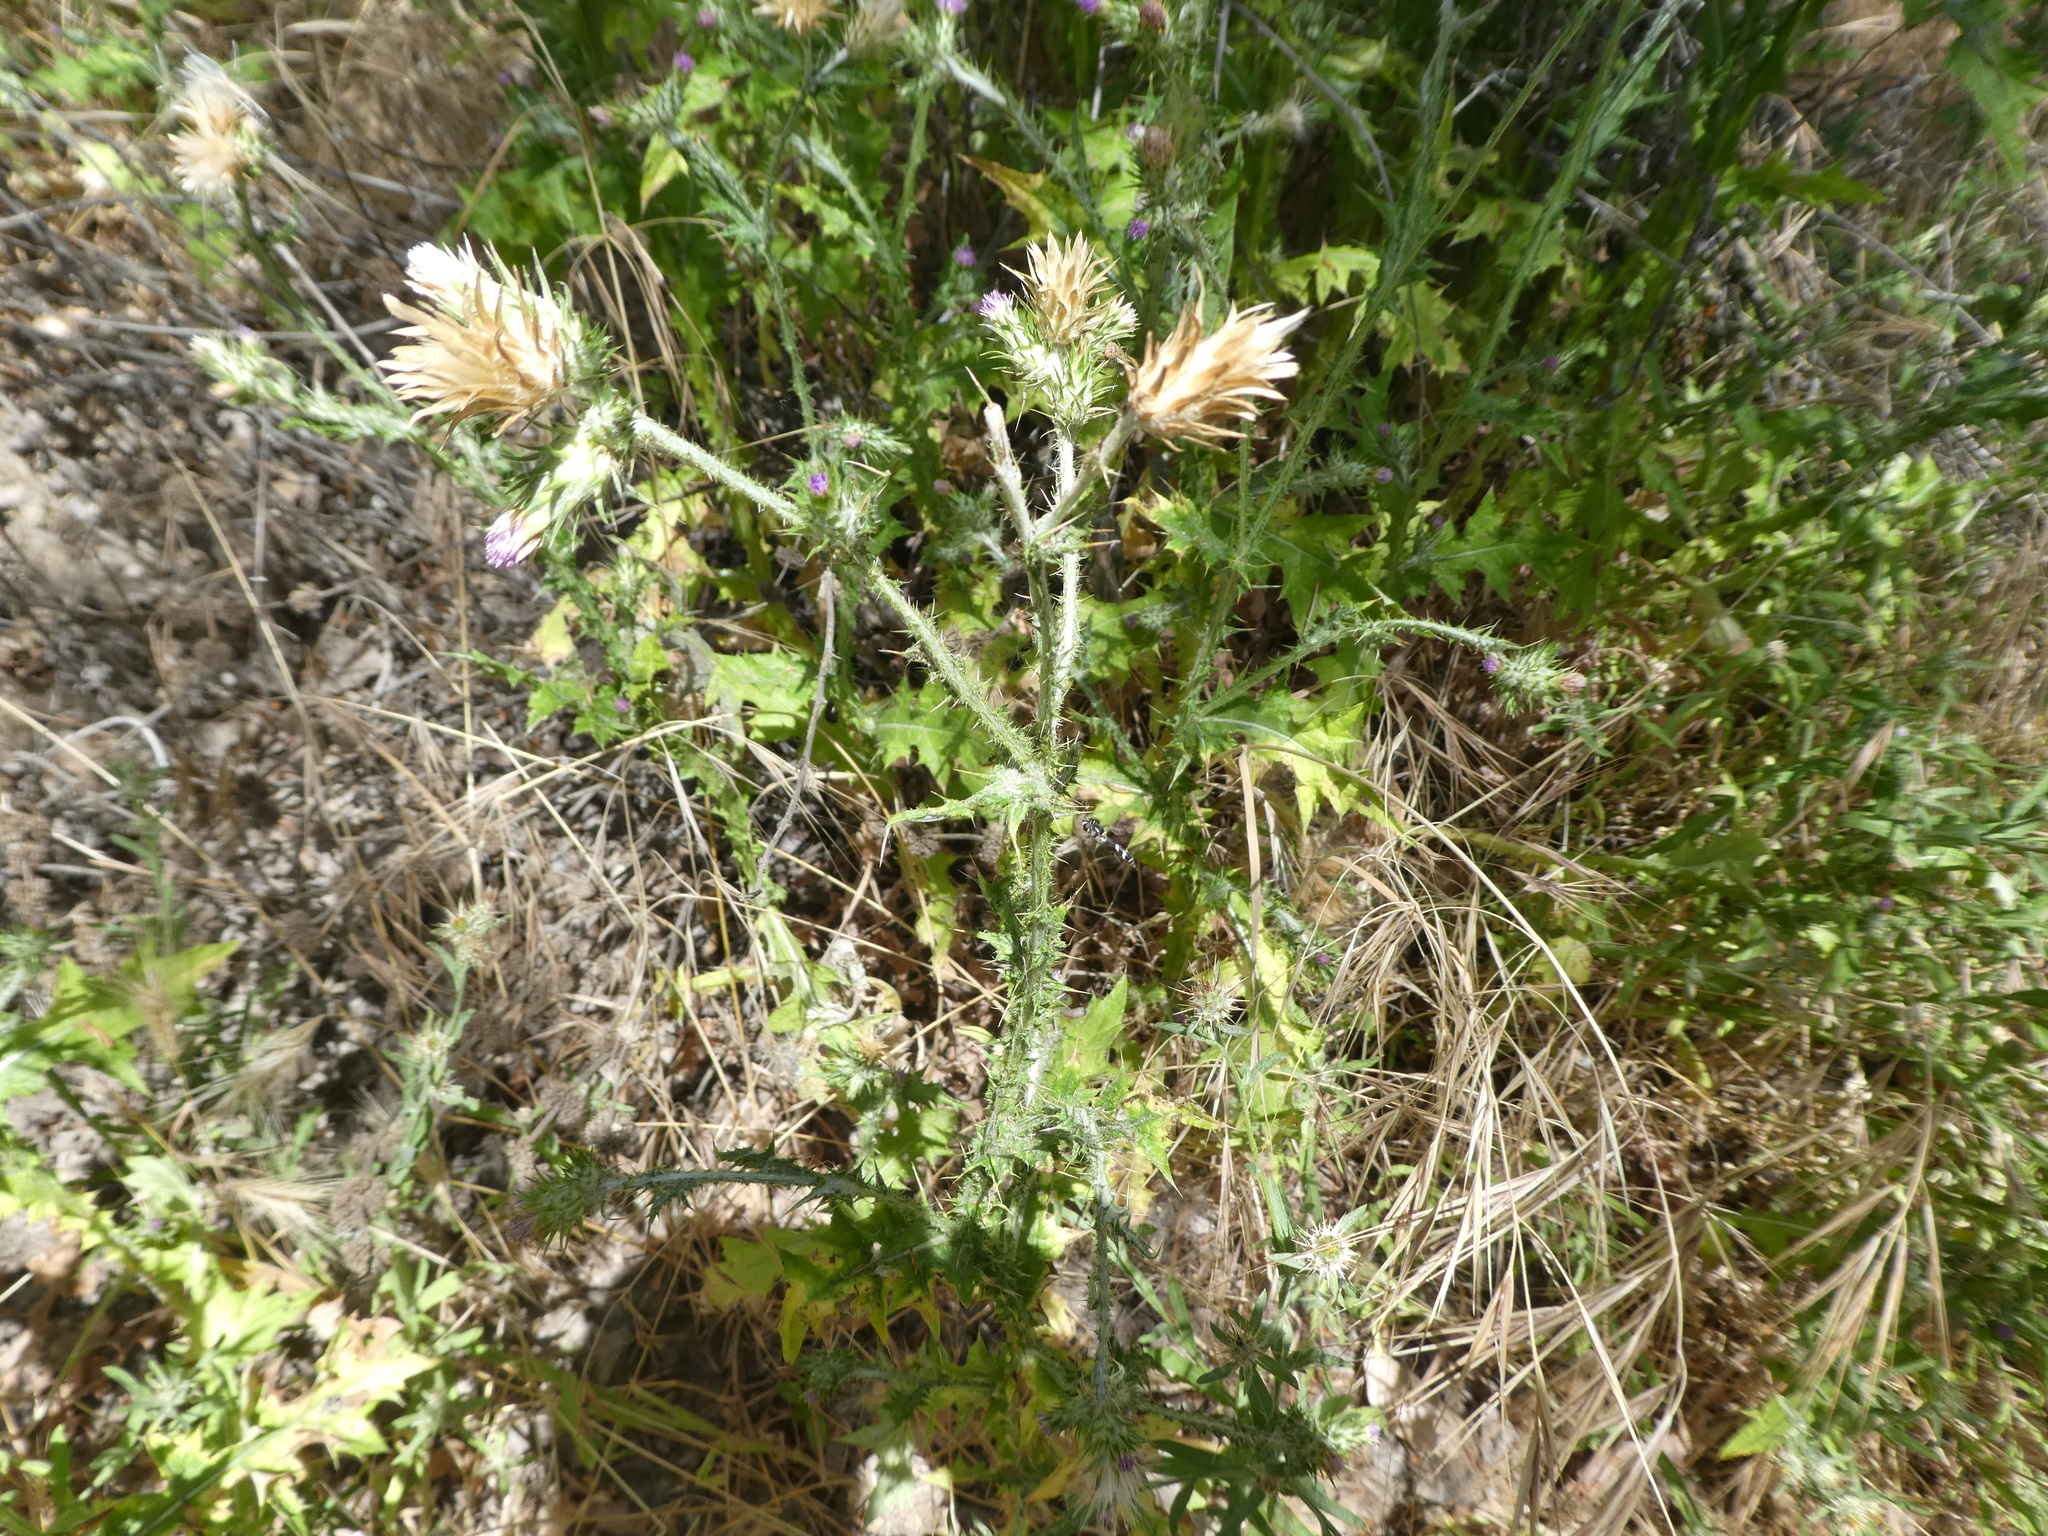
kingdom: Animalia
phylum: Arthropoda
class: Insecta
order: Diptera
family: Syrphidae
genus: Dioprosopa
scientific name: Dioprosopa clavatus
